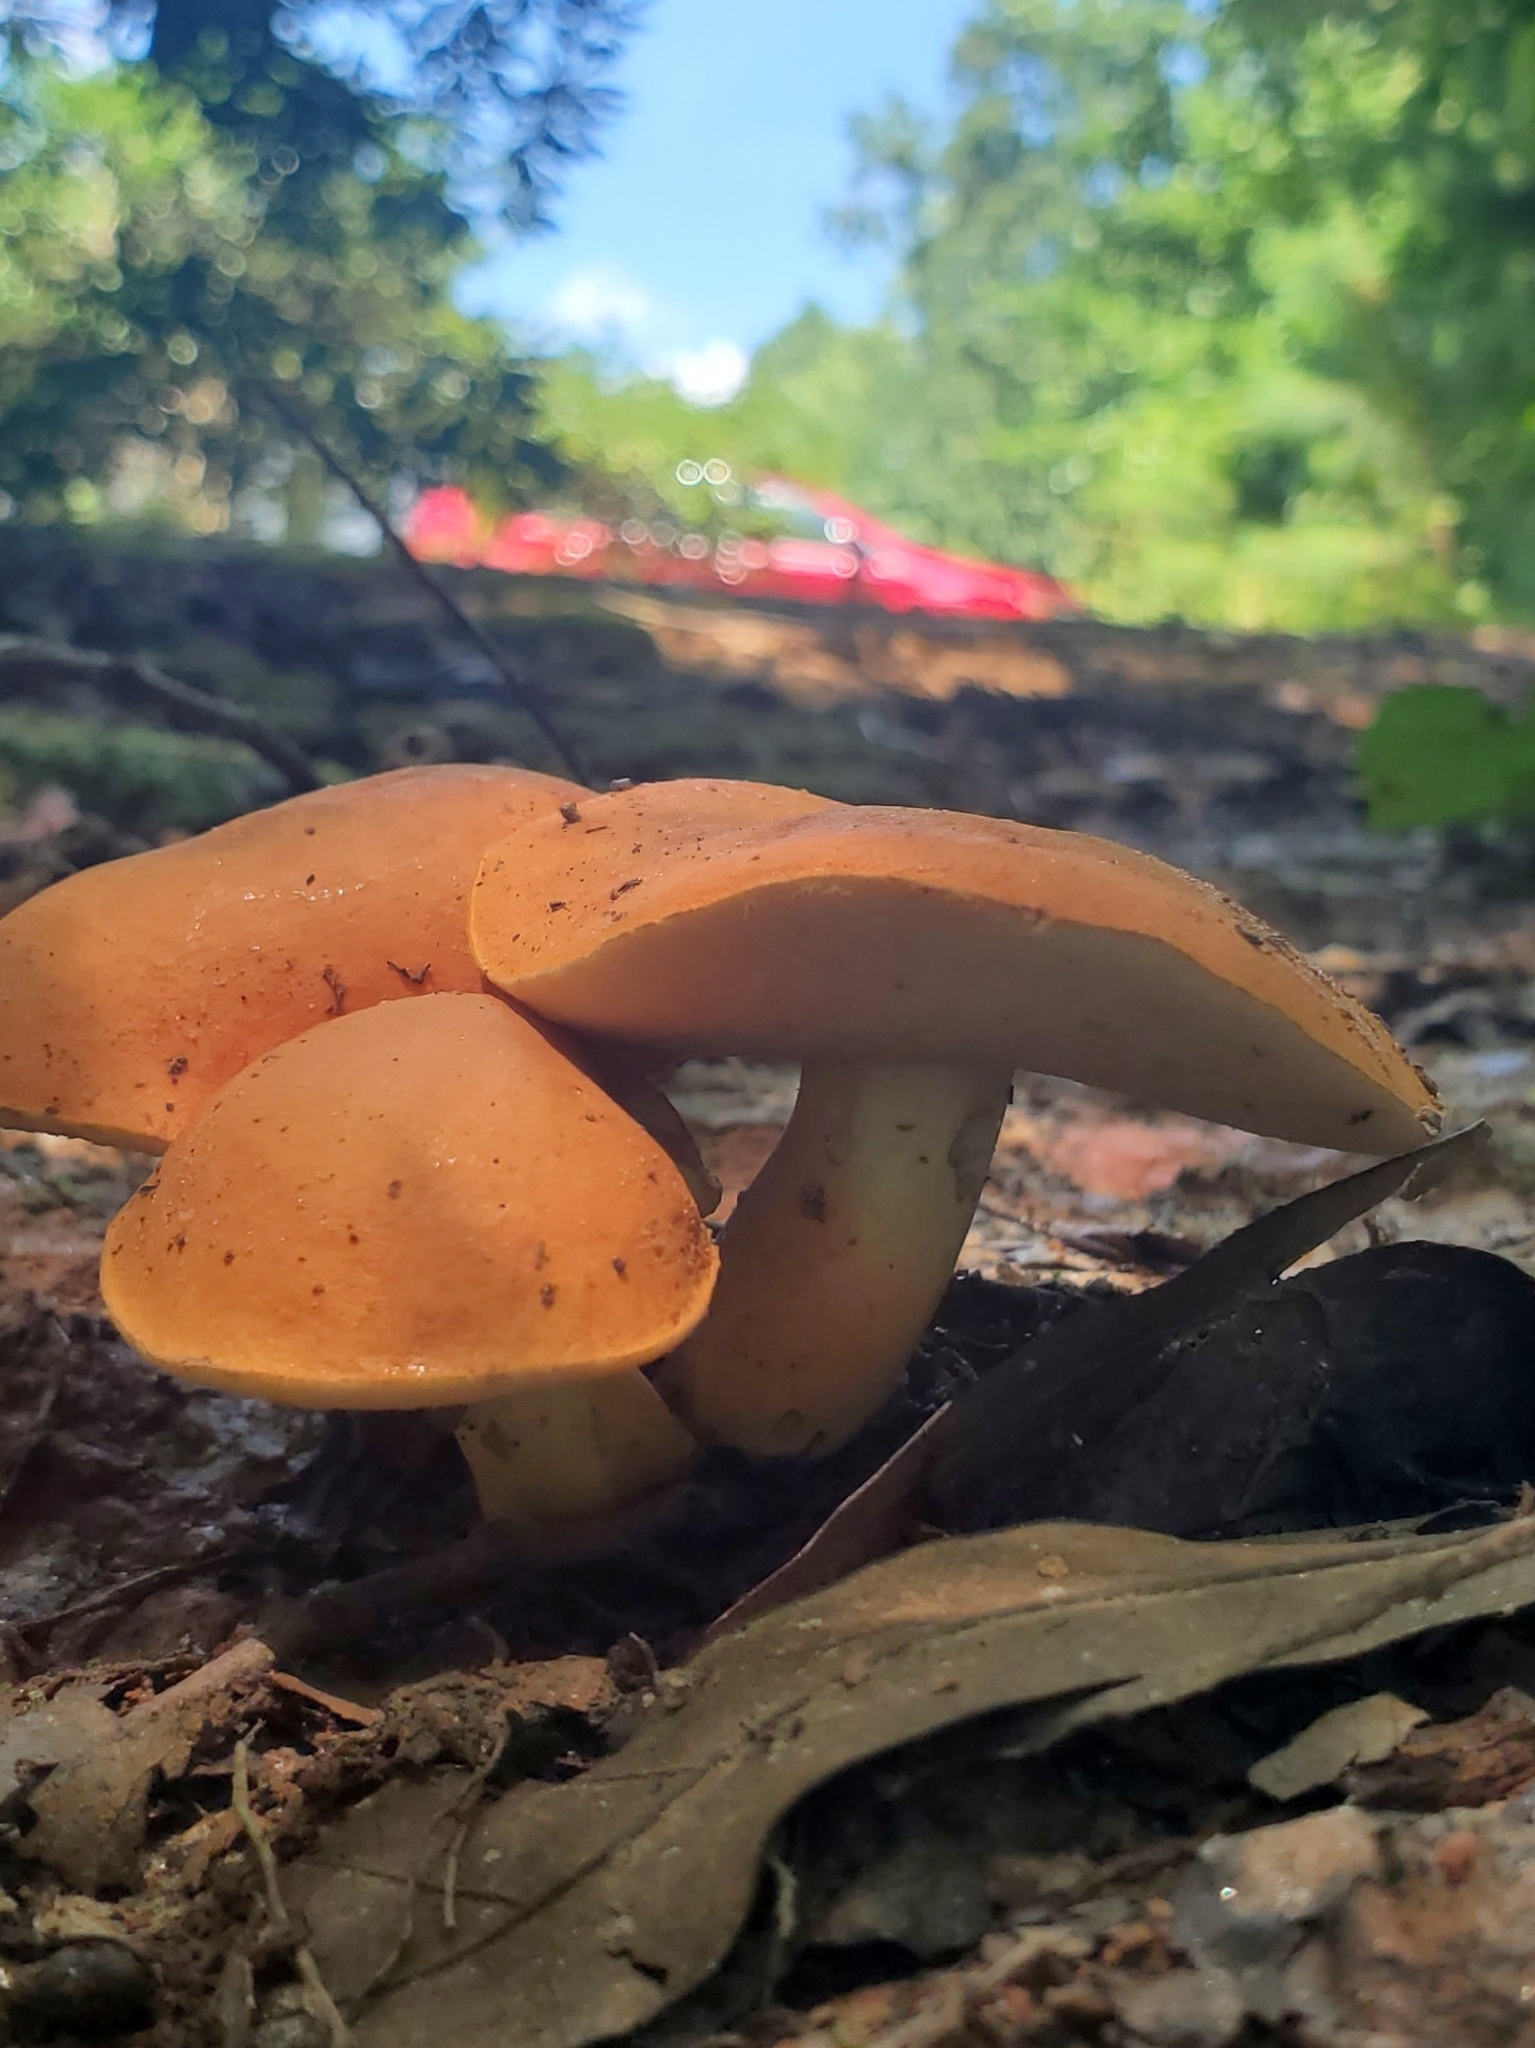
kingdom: Fungi
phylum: Basidiomycota
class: Agaricomycetes
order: Boletales
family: Boletaceae
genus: Tylopilus
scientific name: Tylopilus balloui
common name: Burnt-orange bolete
